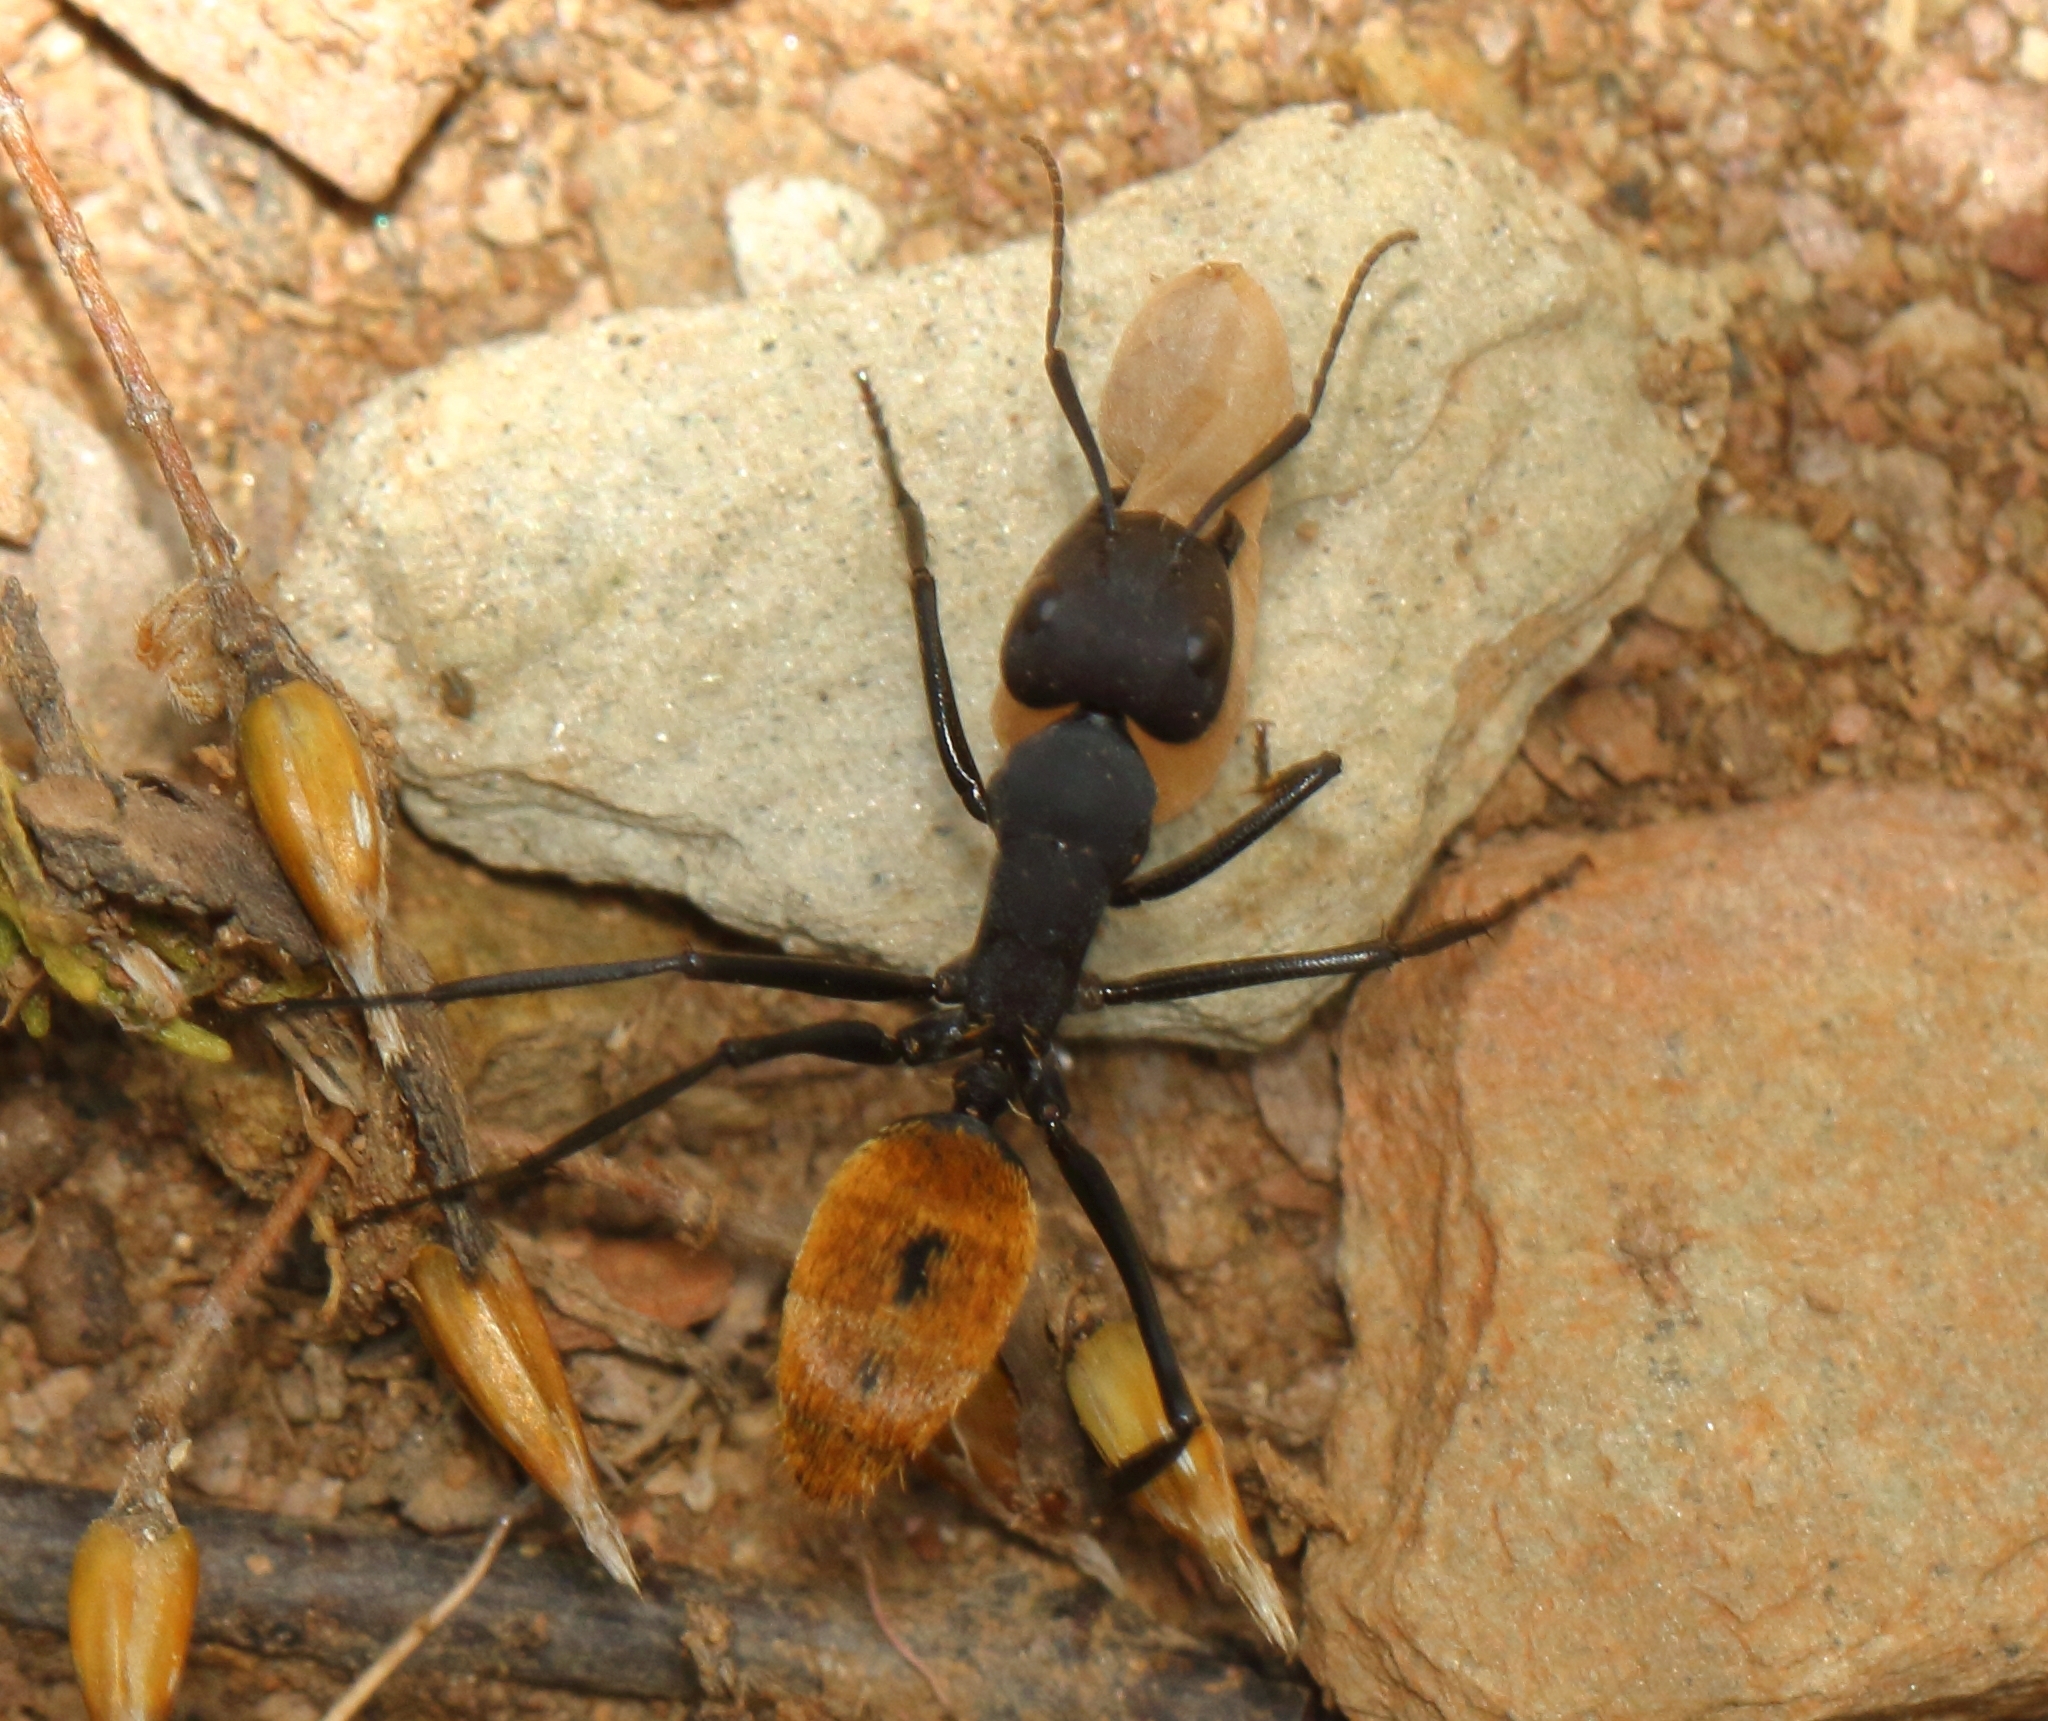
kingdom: Animalia
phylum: Arthropoda
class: Insecta
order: Hymenoptera
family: Formicidae
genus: Camponotus
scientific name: Camponotus fulvopilosus
